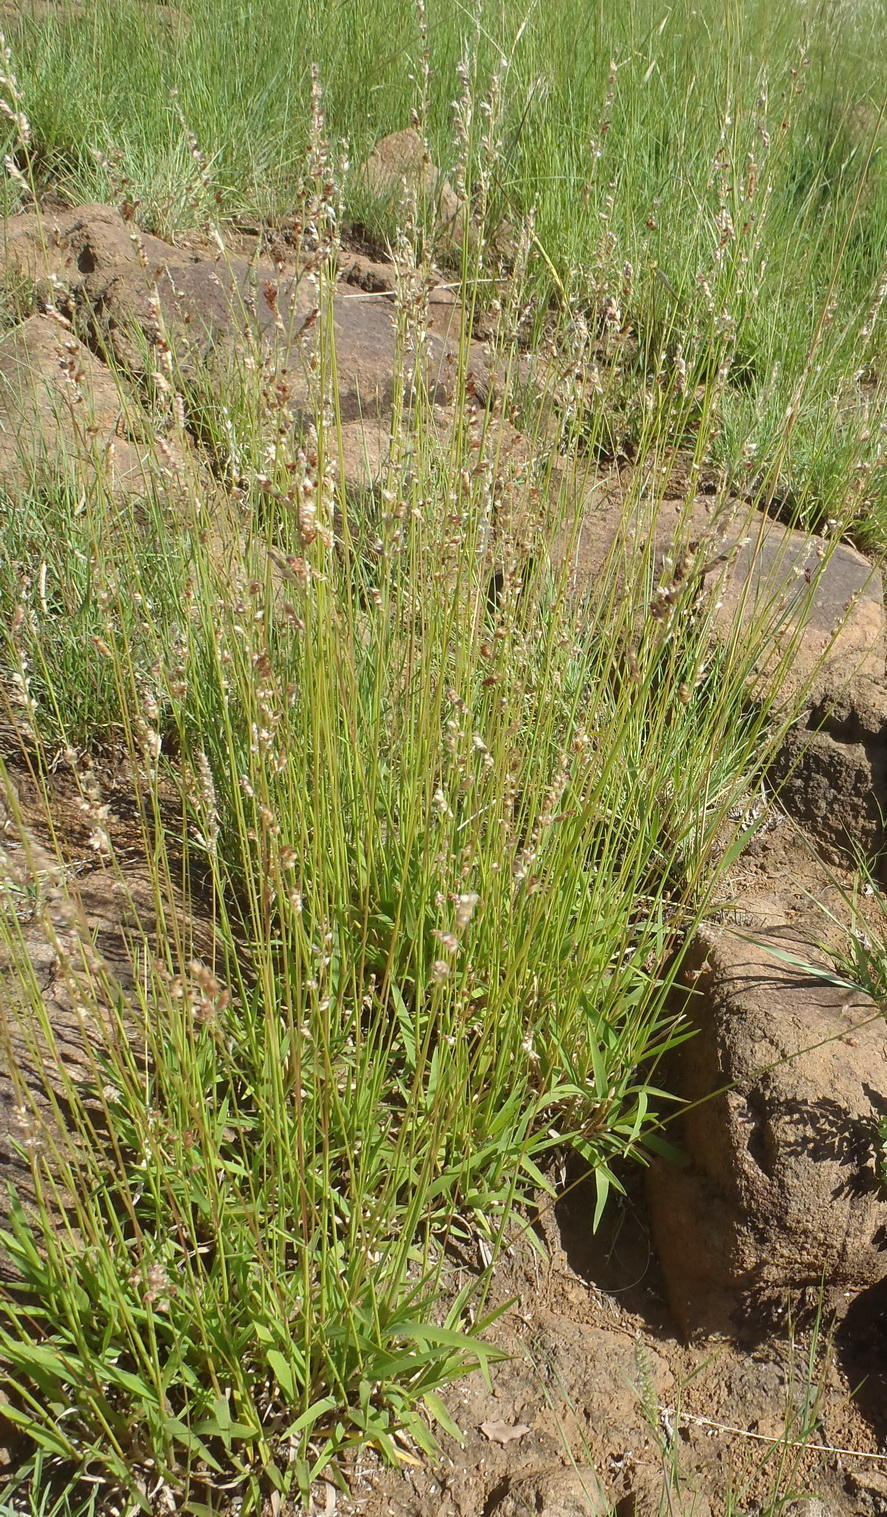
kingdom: Plantae
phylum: Tracheophyta
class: Liliopsida
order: Poales
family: Poaceae
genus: Urochloa
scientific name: Urochloa serrata
